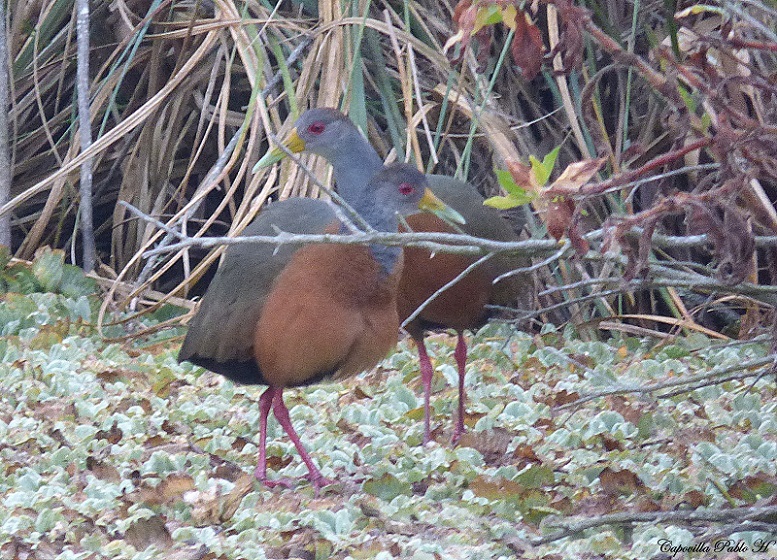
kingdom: Animalia
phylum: Chordata
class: Aves
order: Gruiformes
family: Rallidae
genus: Aramides
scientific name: Aramides cajanea
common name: Gray-necked wood-rail
